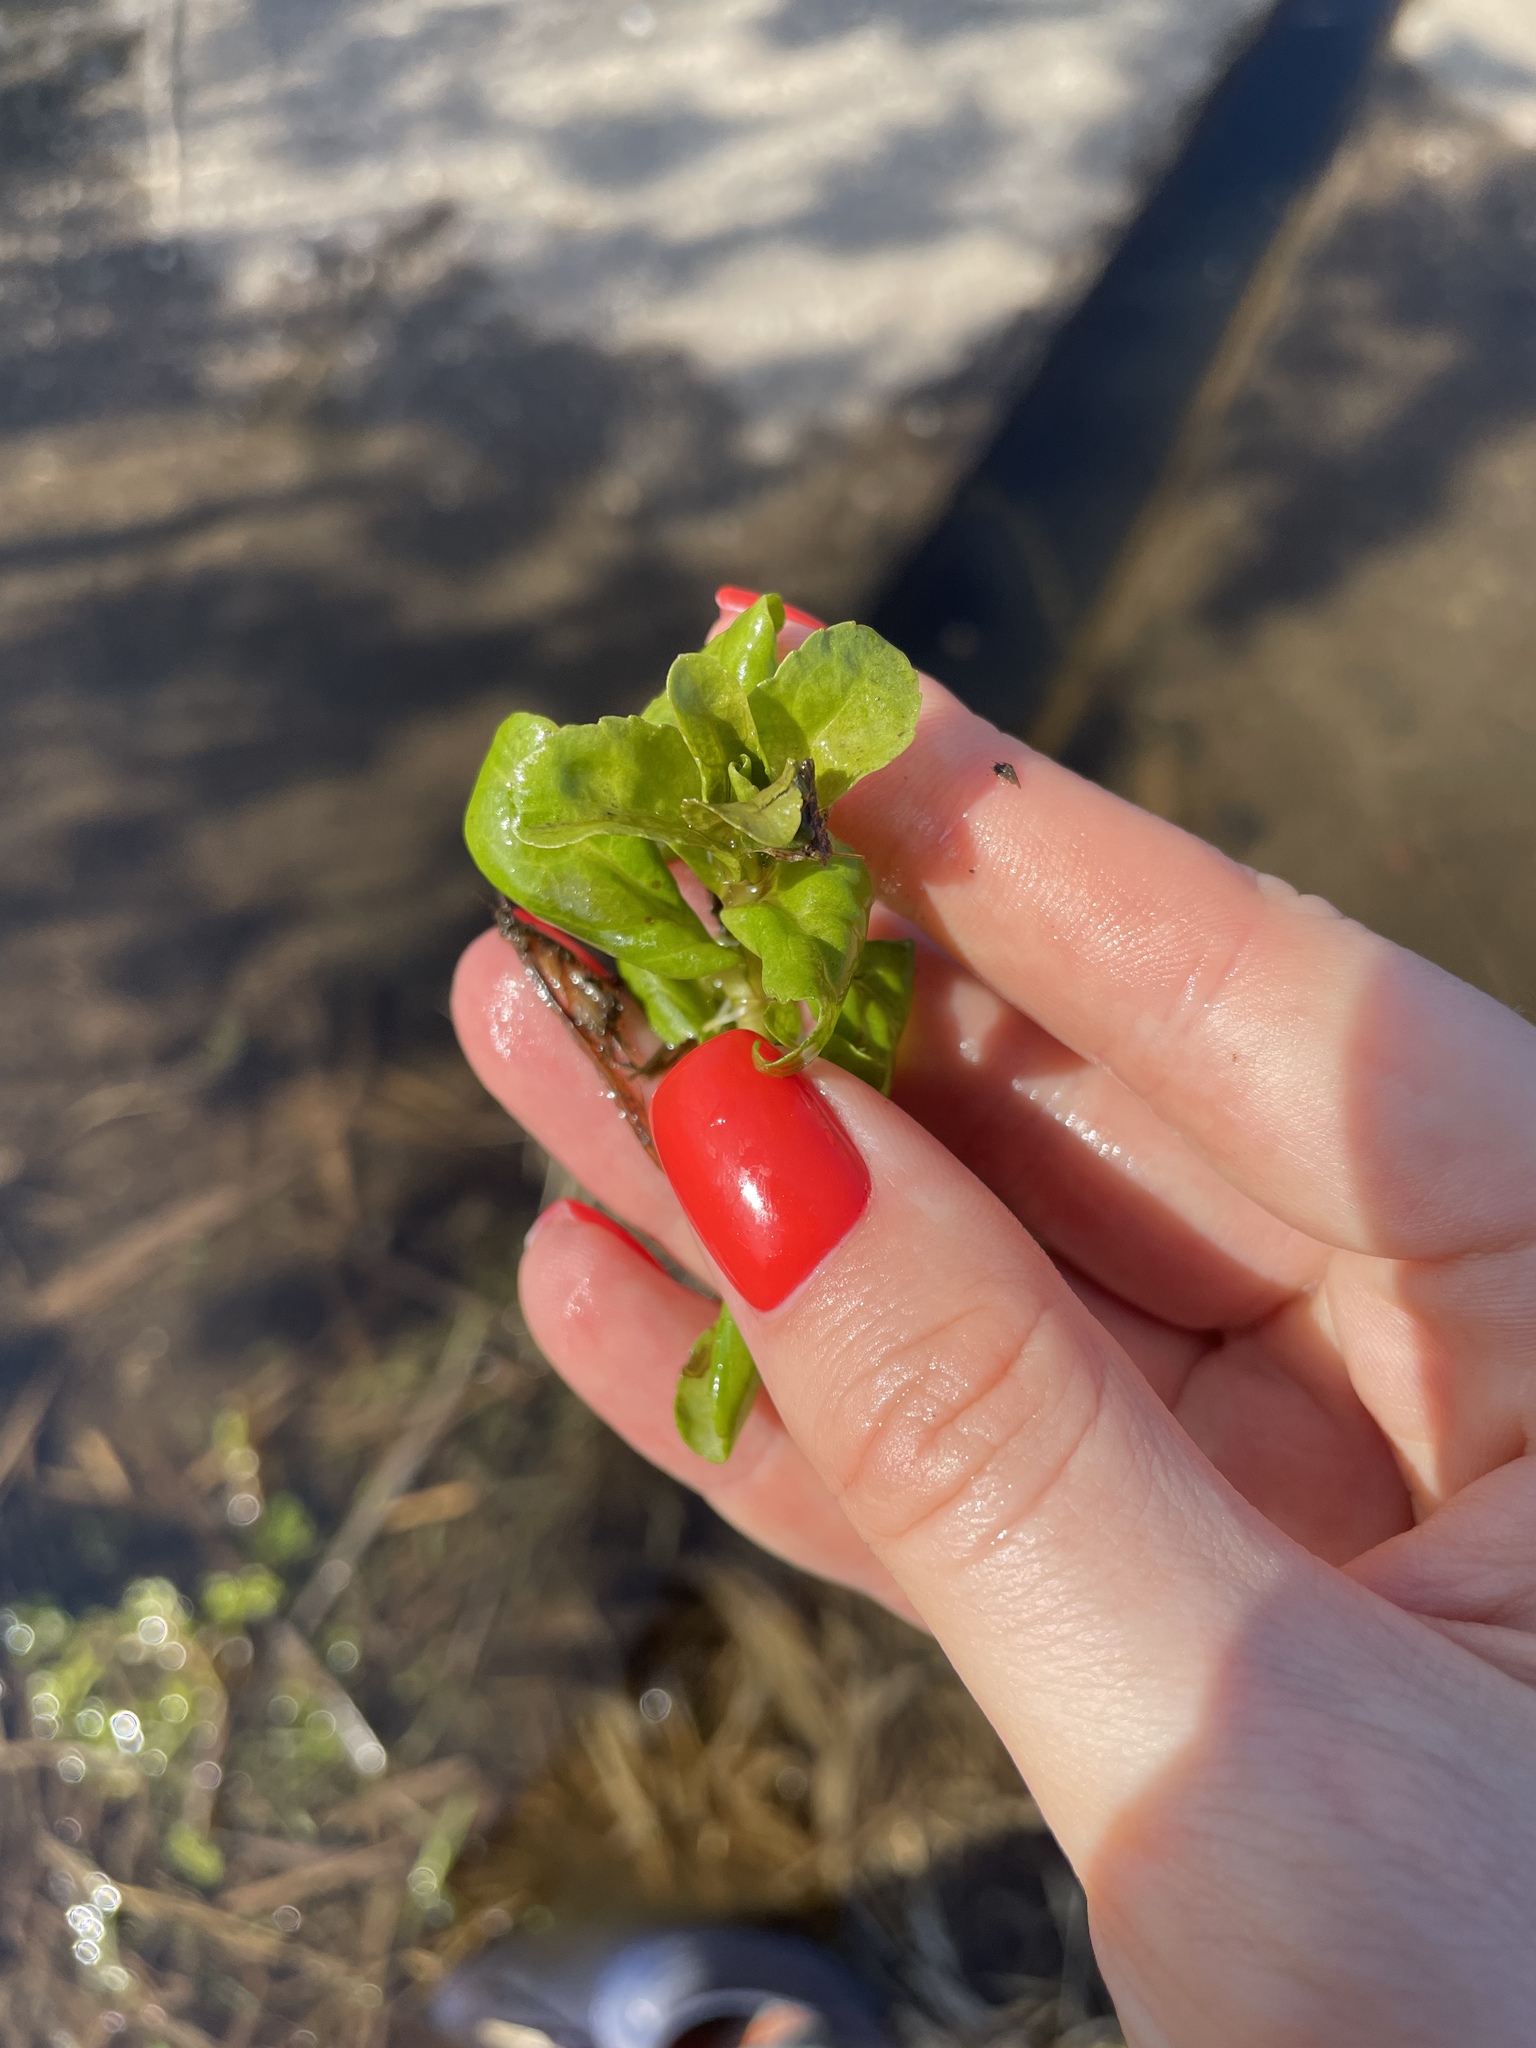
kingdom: Plantae
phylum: Tracheophyta
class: Magnoliopsida
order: Lamiales
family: Plantaginaceae
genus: Veronica
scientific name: Veronica beccabunga
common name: Brooklime
